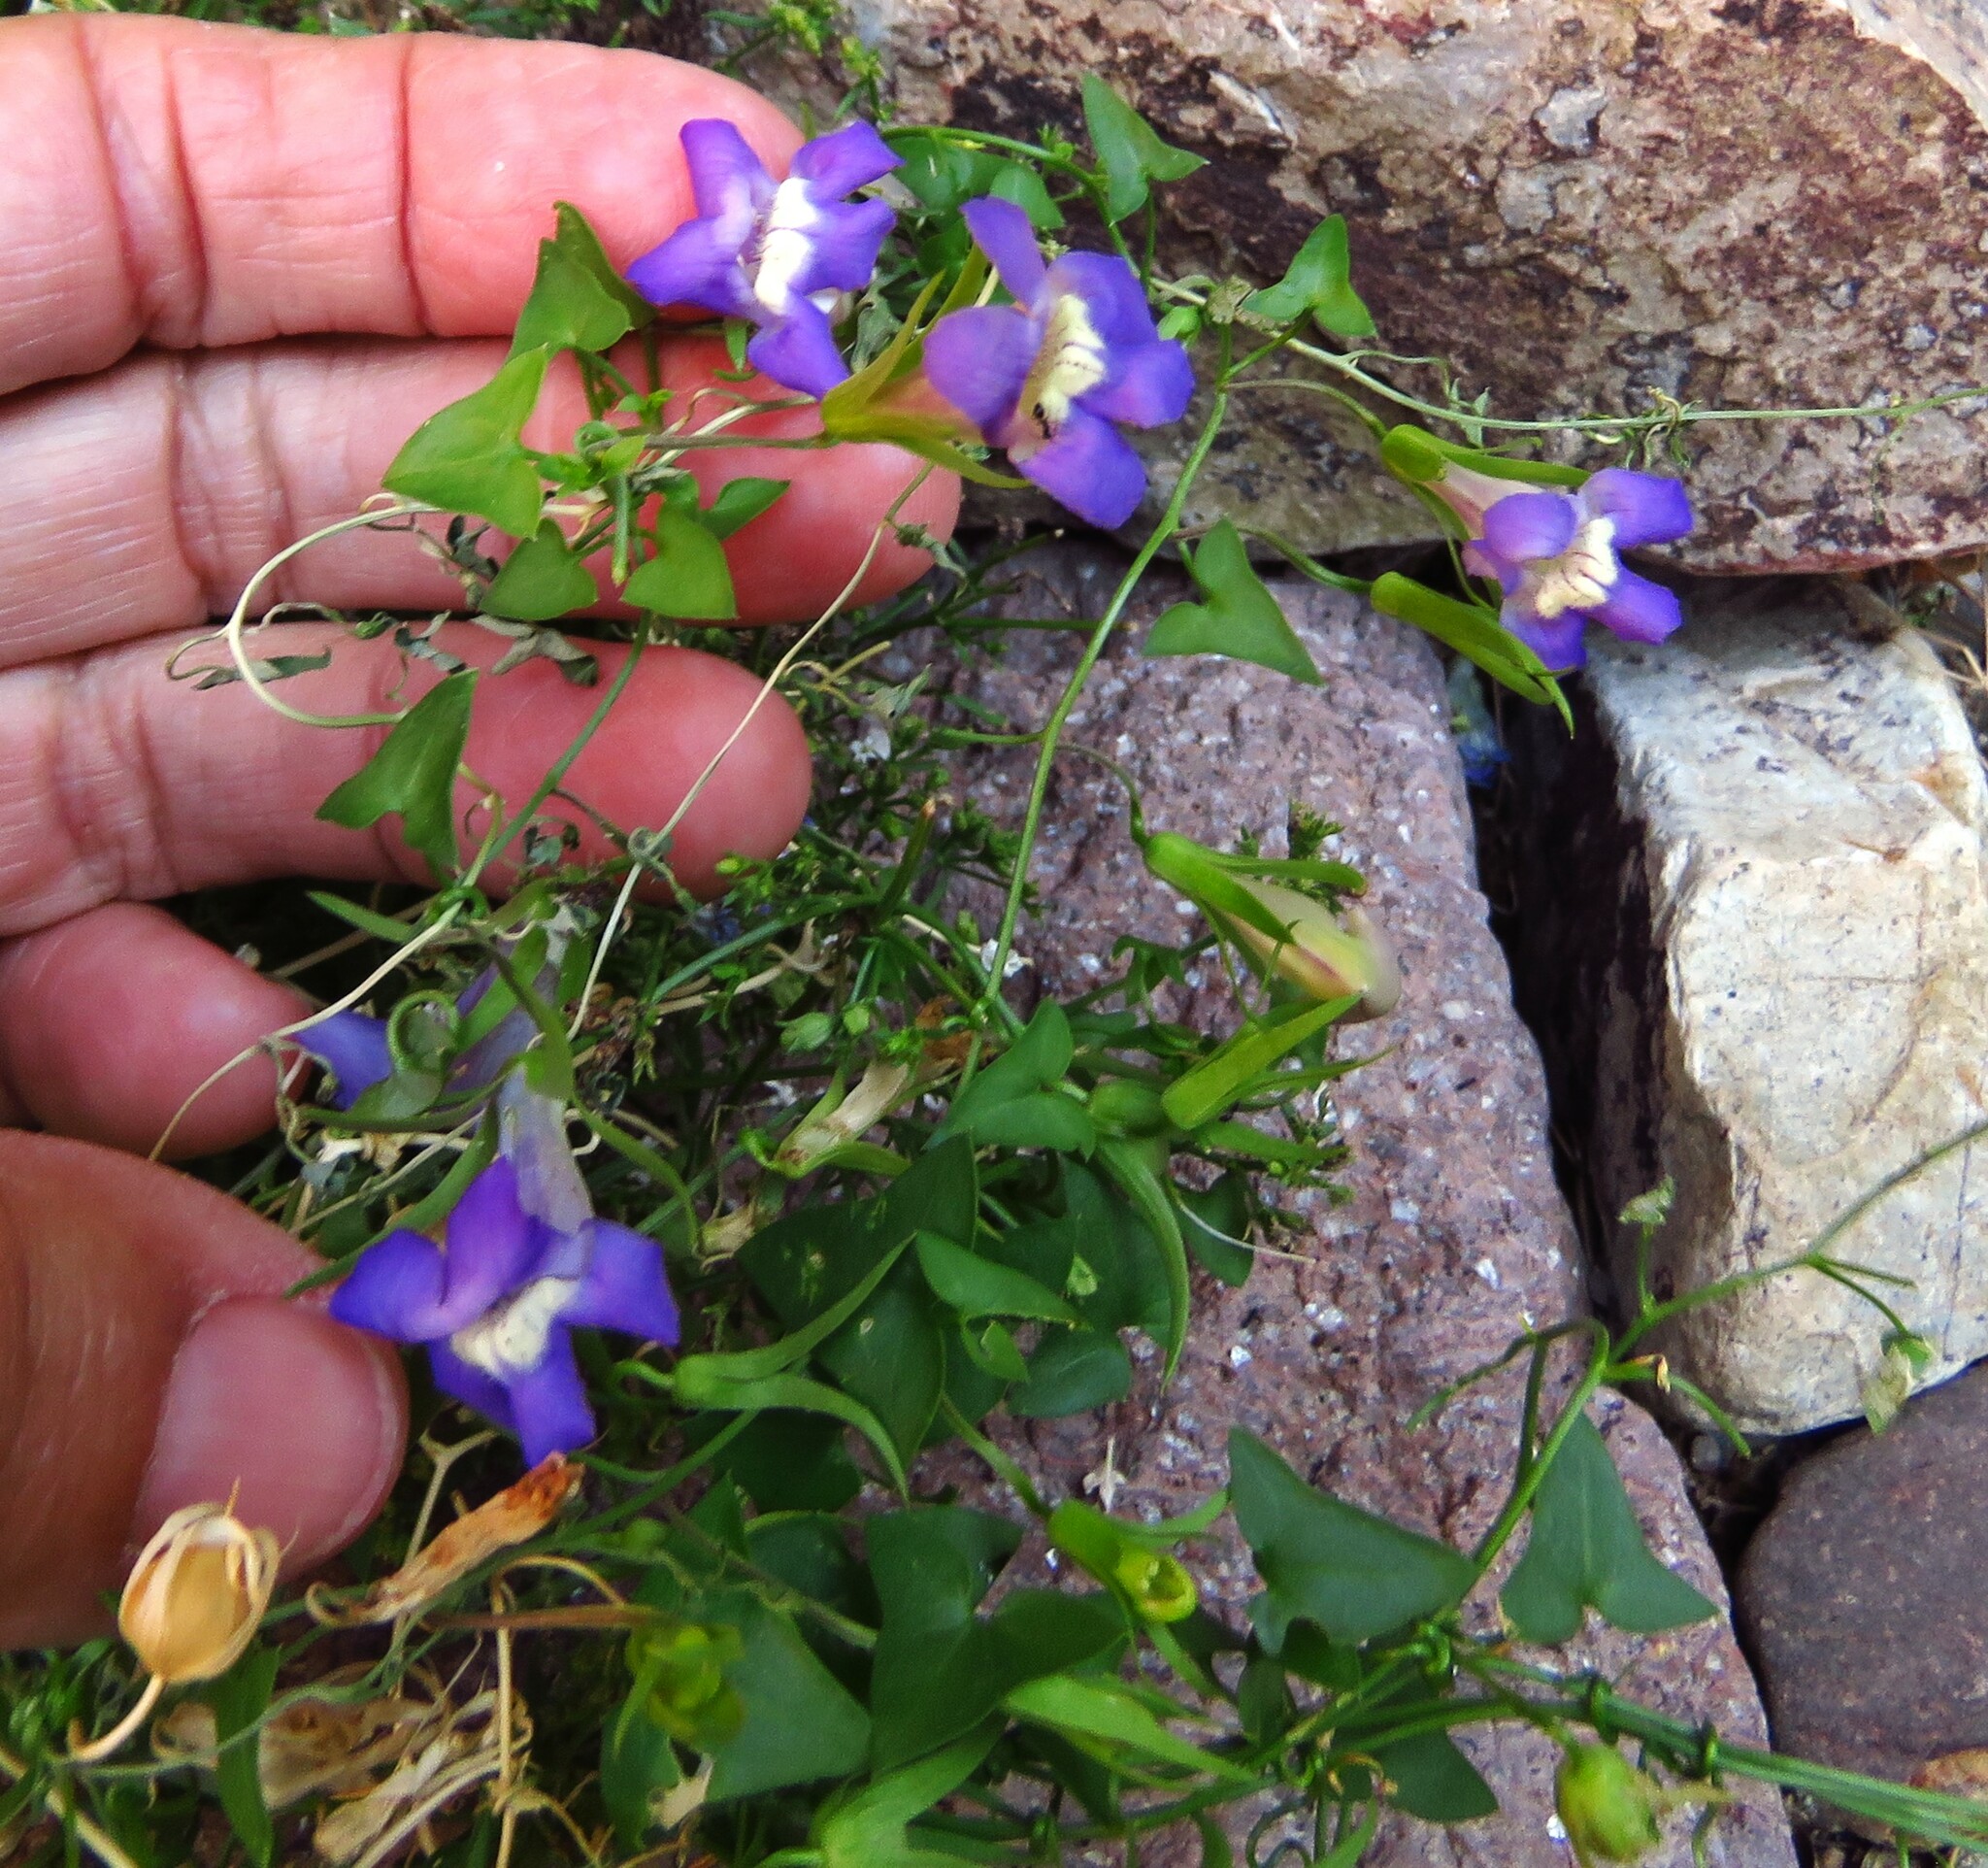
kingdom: Plantae
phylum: Tracheophyta
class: Magnoliopsida
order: Lamiales
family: Plantaginaceae
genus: Maurandella
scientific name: Maurandella antirrhiniflora
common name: Violet twining-snapdragon
